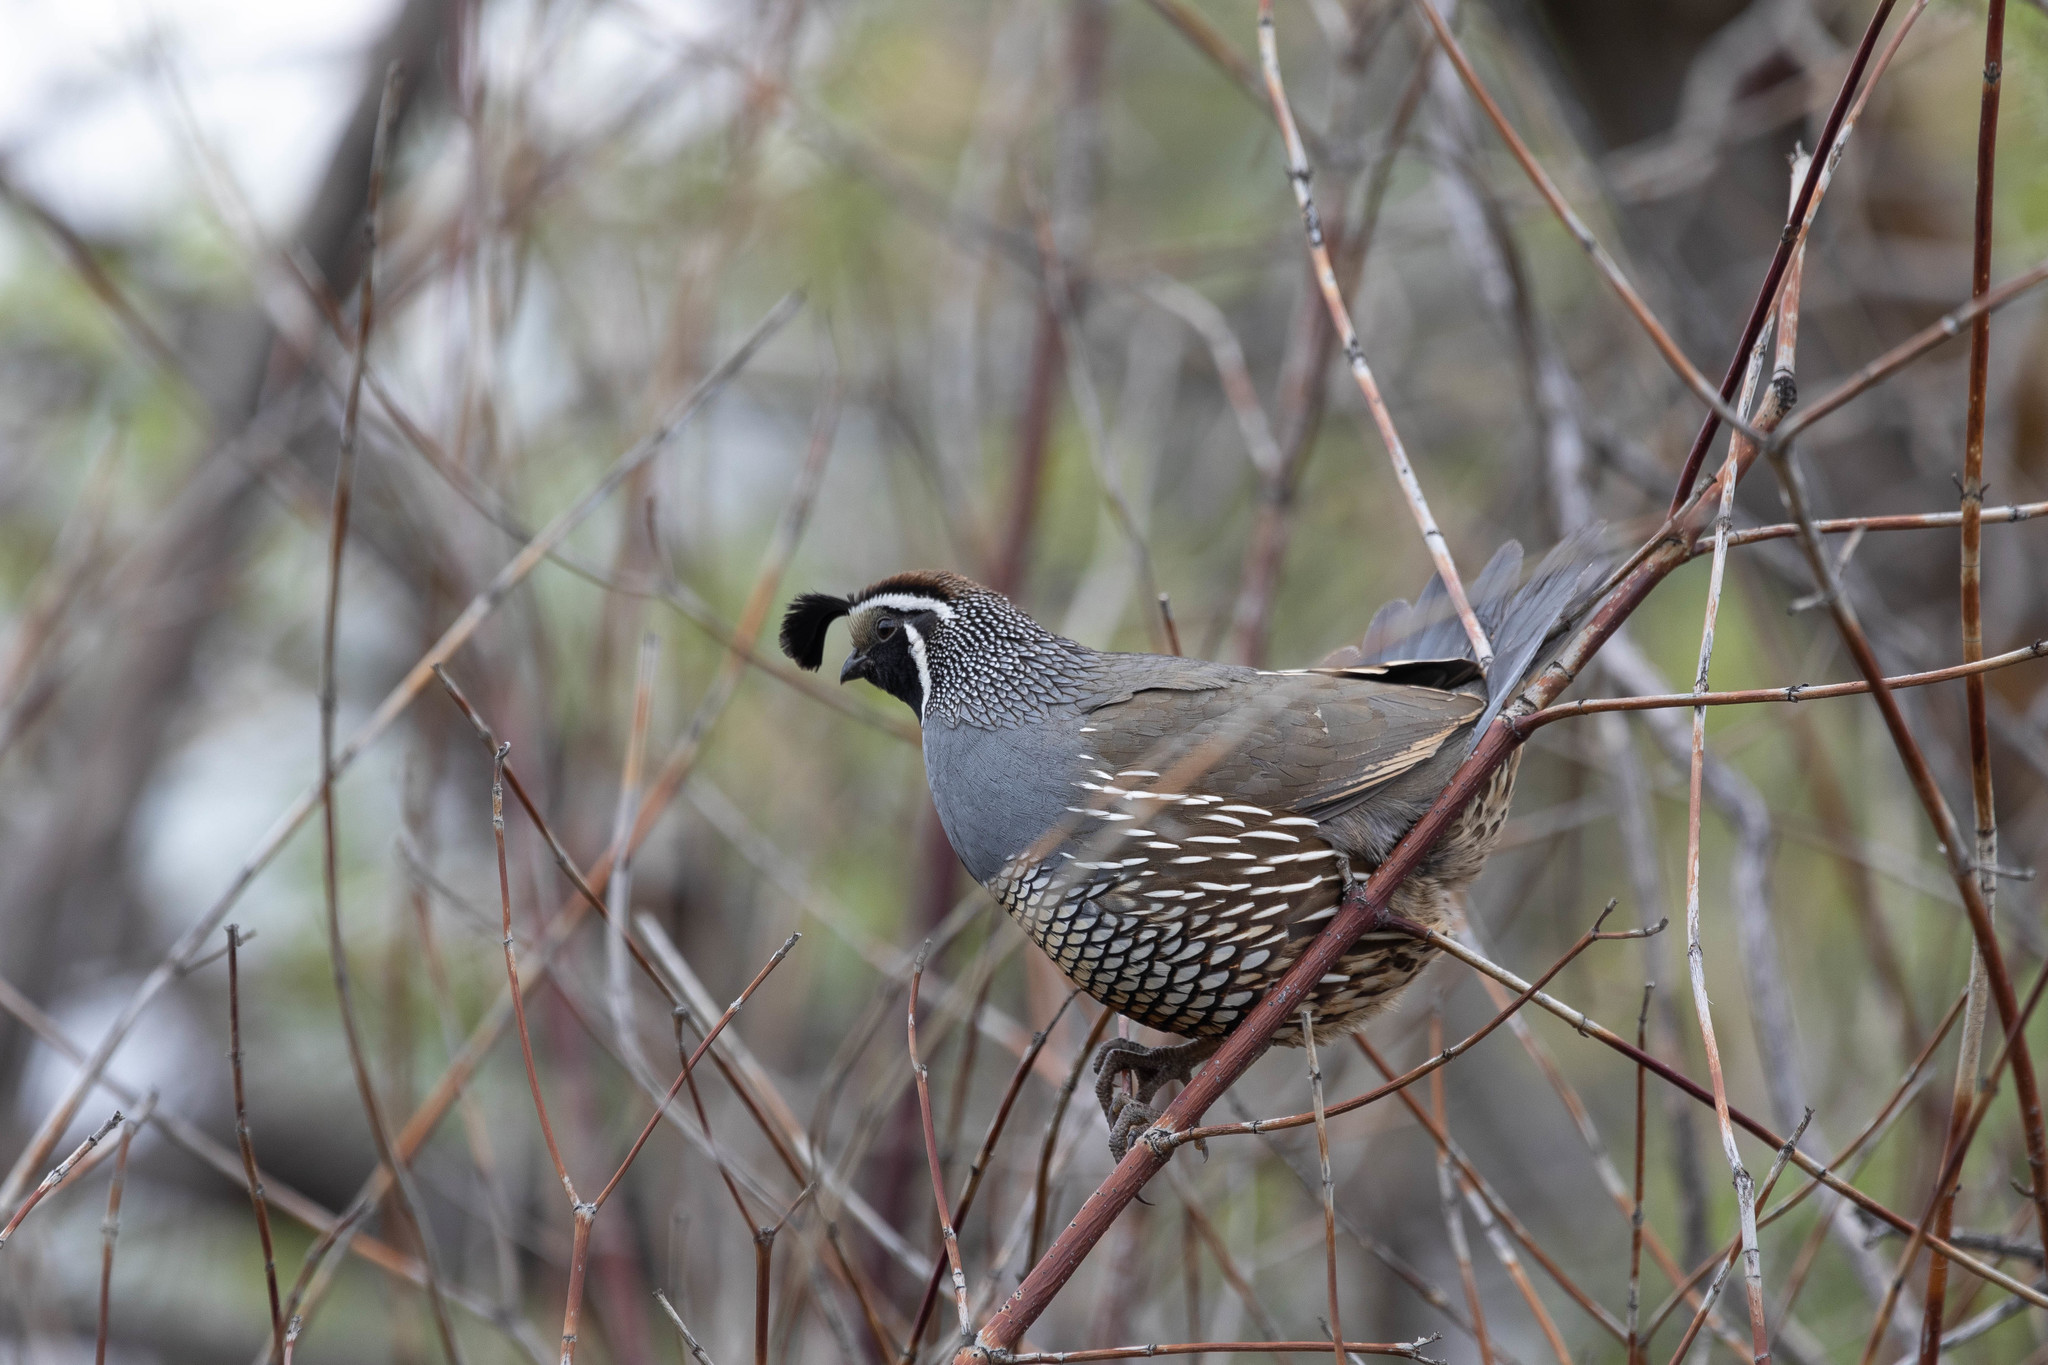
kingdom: Animalia
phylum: Chordata
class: Aves
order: Galliformes
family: Odontophoridae
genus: Callipepla
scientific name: Callipepla californica
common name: California quail
